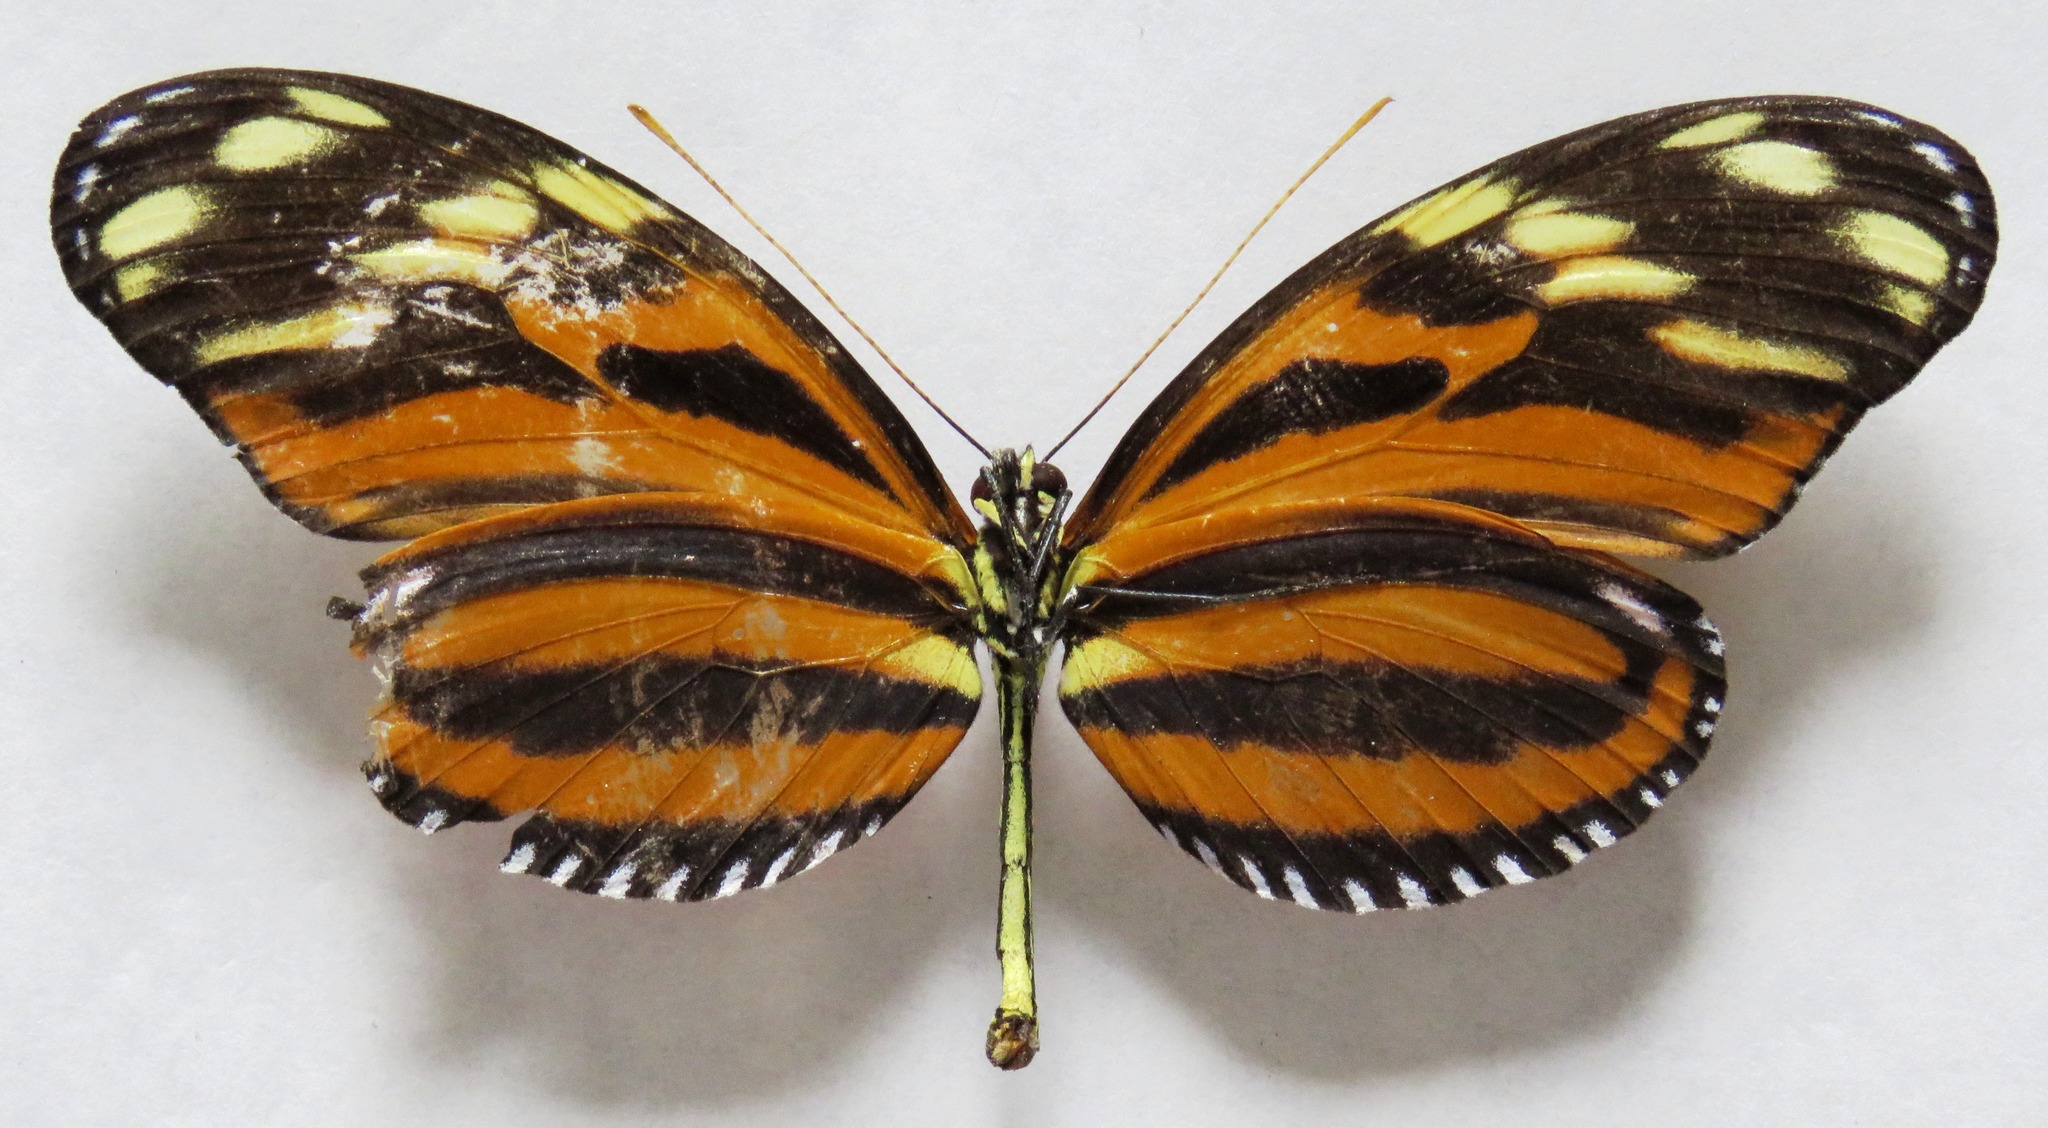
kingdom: Animalia
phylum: Arthropoda
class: Insecta
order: Lepidoptera
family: Nymphalidae
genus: Heliconius
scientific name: Heliconius ismenius
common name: Ismenius tiger
